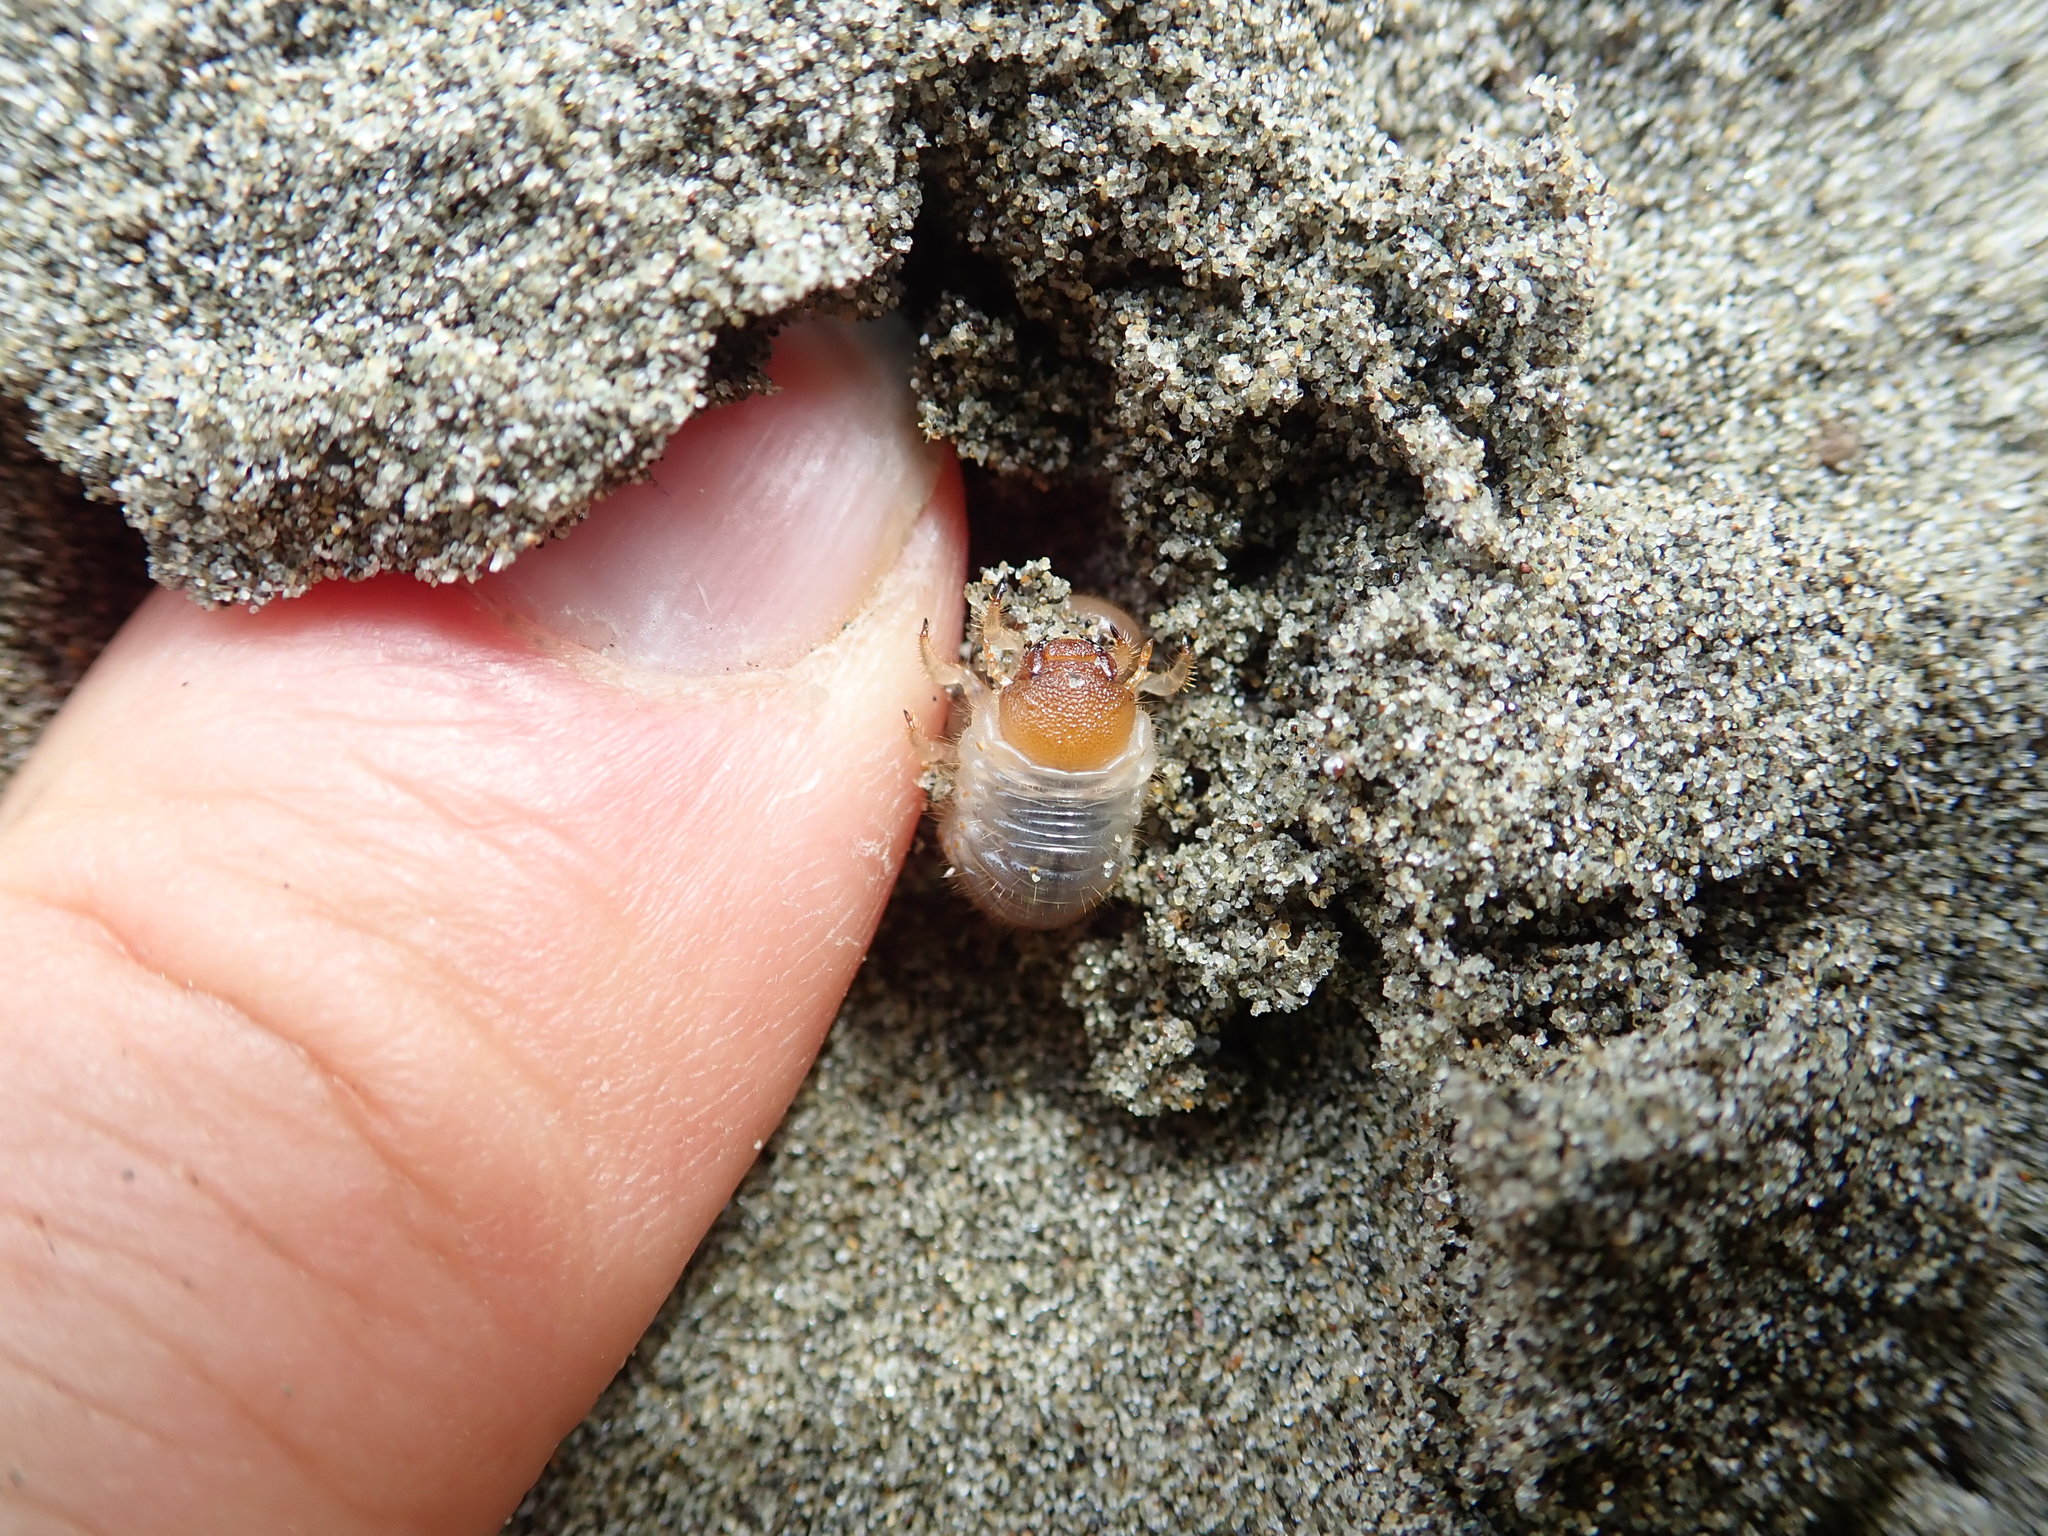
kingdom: Animalia
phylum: Arthropoda
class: Insecta
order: Coleoptera
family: Scarabaeidae
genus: Pericoptus
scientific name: Pericoptus truncatus
